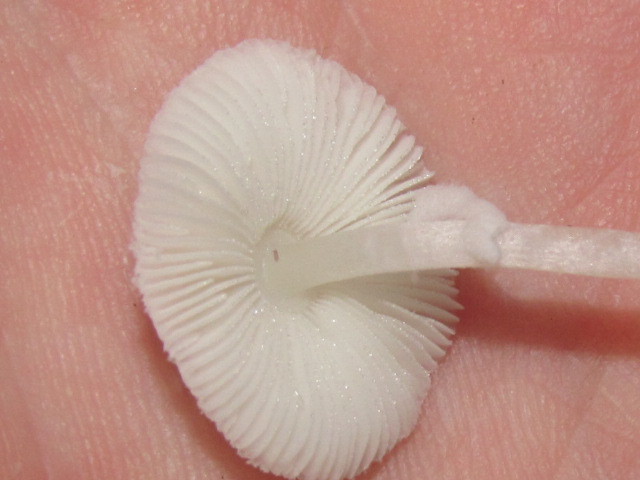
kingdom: Fungi
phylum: Basidiomycota
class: Agaricomycetes
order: Agaricales
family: Agaricaceae
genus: Leucocoprinus
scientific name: Leucocoprinus brebissonii
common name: Skullcap dapperling
